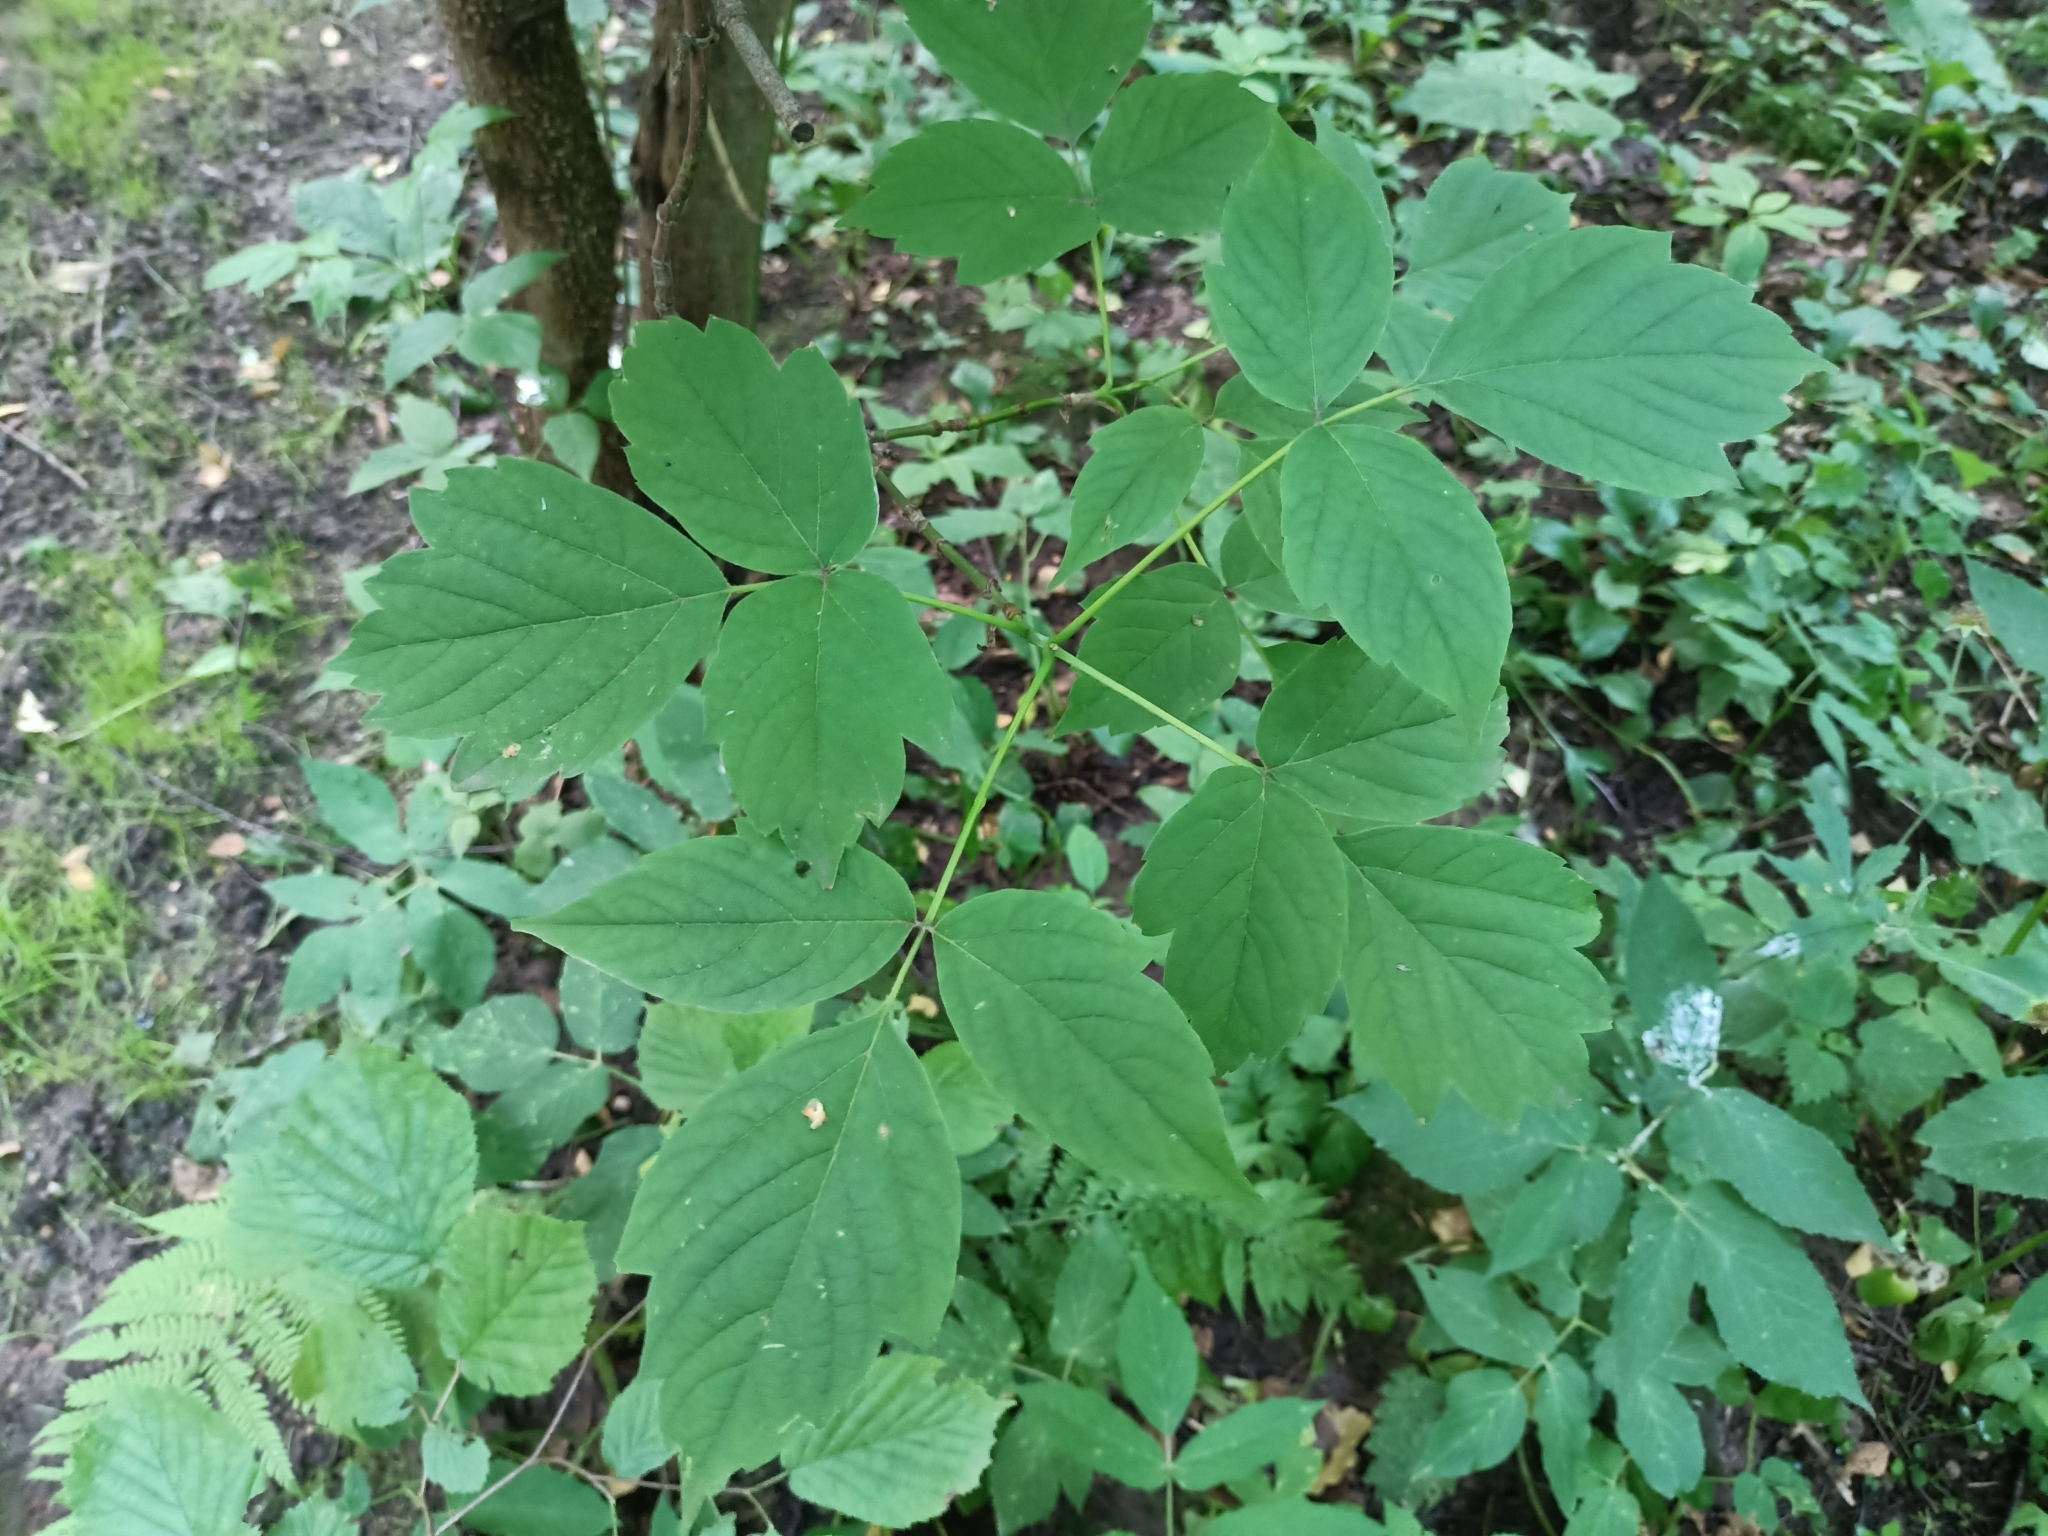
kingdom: Plantae
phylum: Tracheophyta
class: Magnoliopsida
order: Sapindales
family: Sapindaceae
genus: Acer
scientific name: Acer negundo
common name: Ashleaf maple
